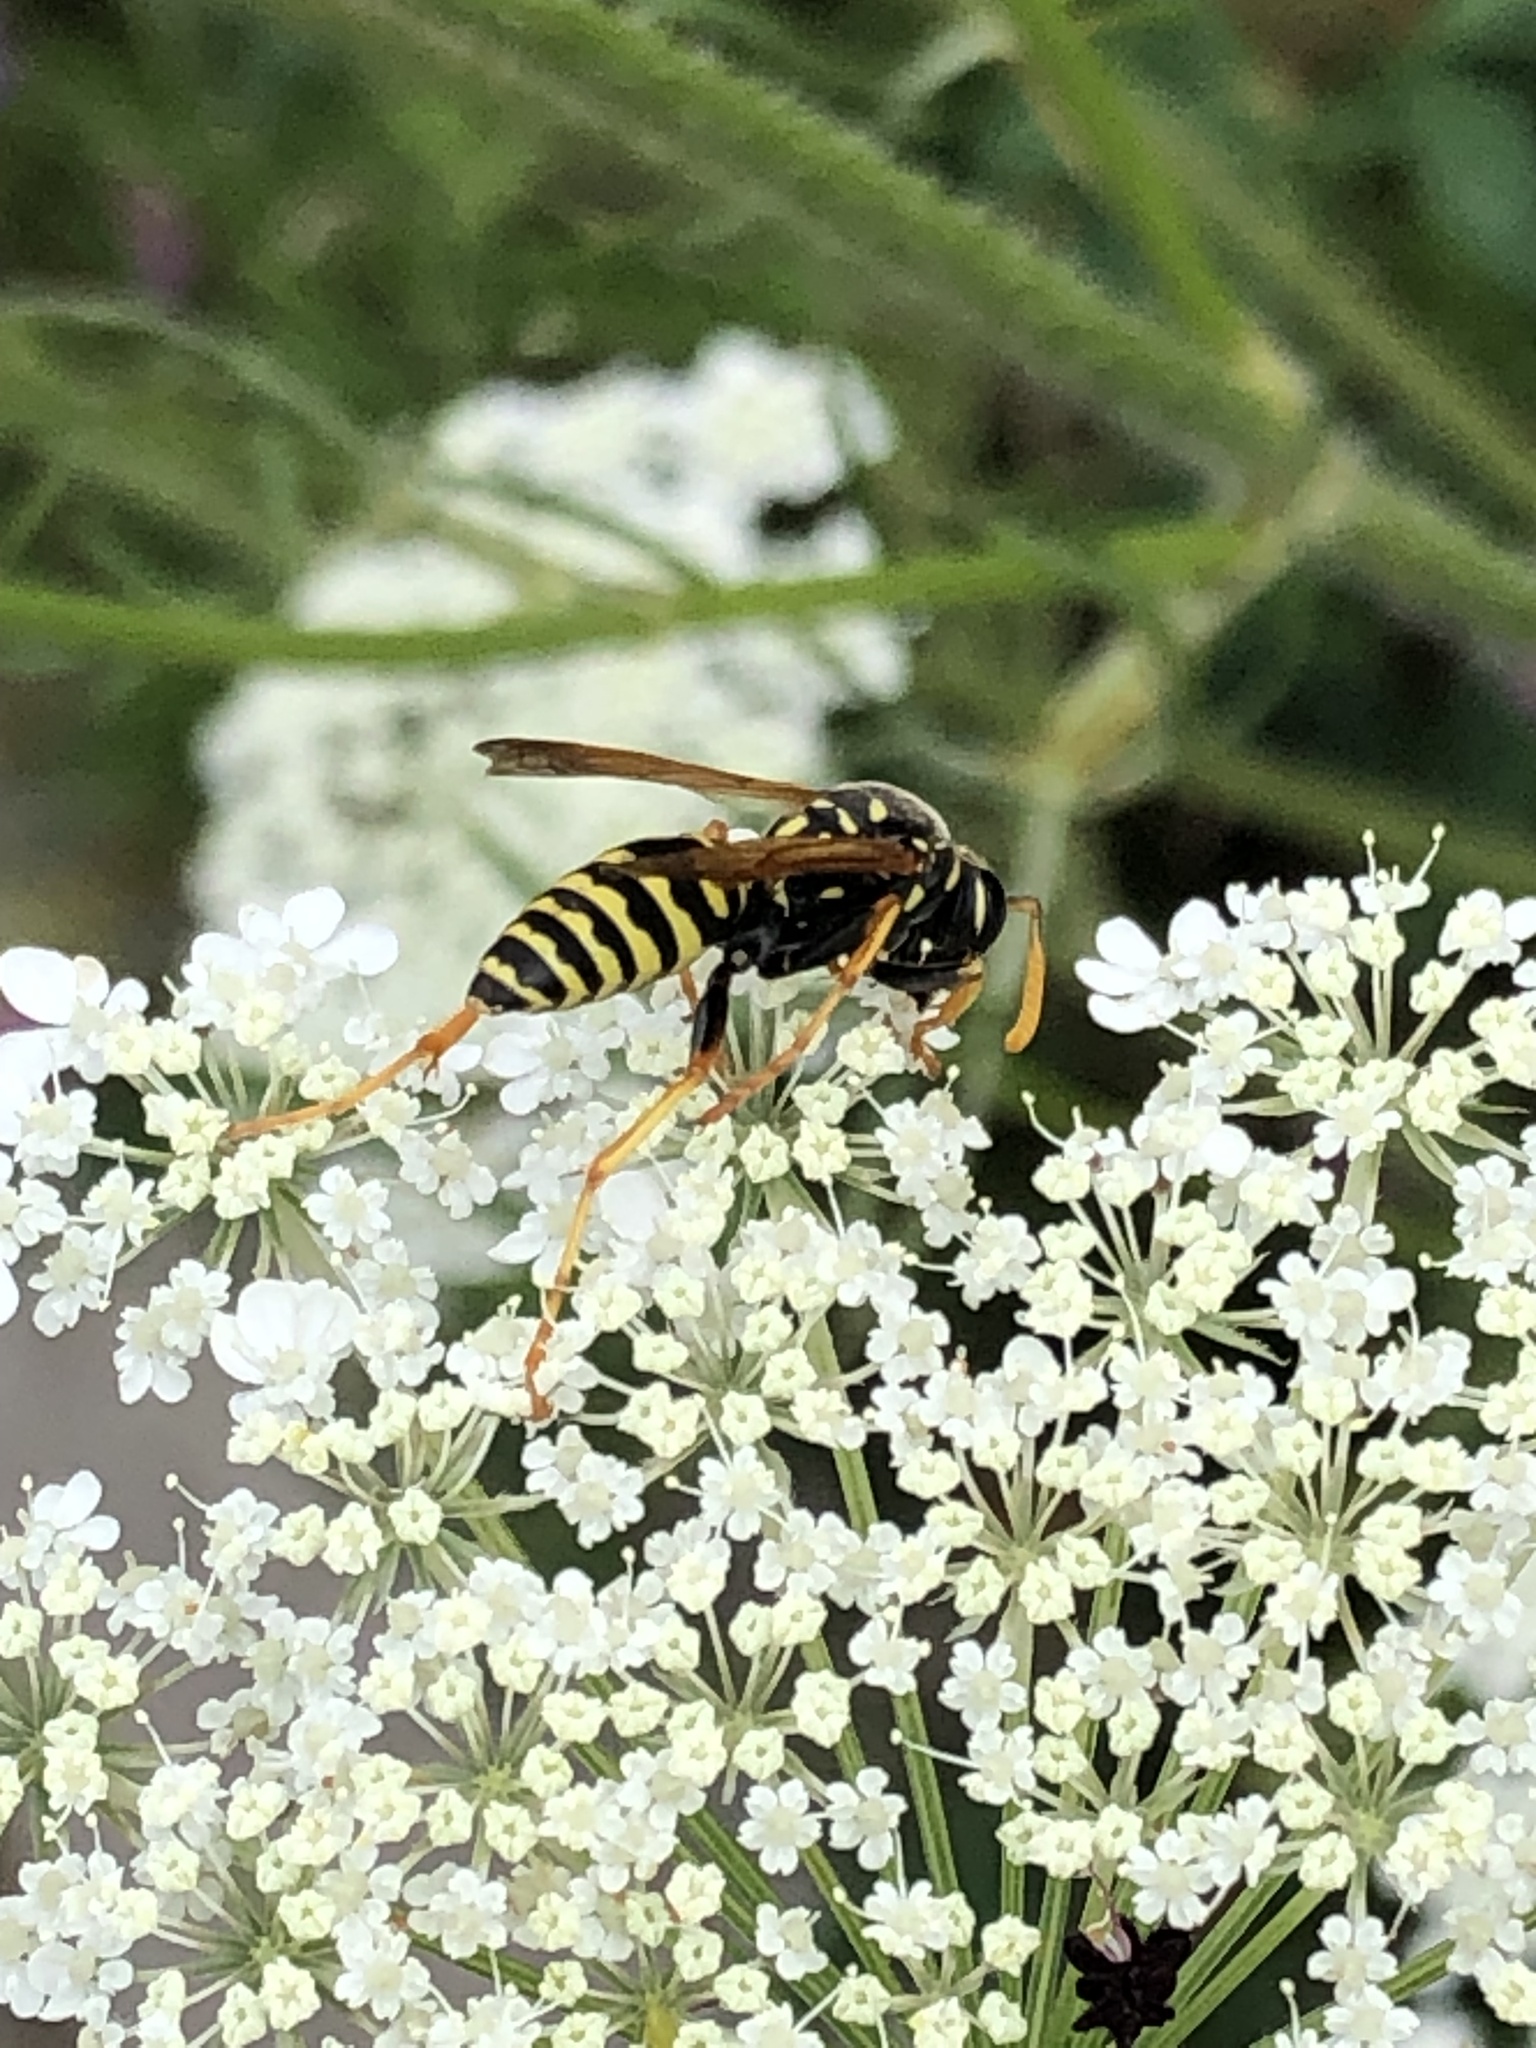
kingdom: Animalia
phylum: Arthropoda
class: Insecta
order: Hymenoptera
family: Eumenidae
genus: Polistes
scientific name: Polistes dominula
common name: Paper wasp
